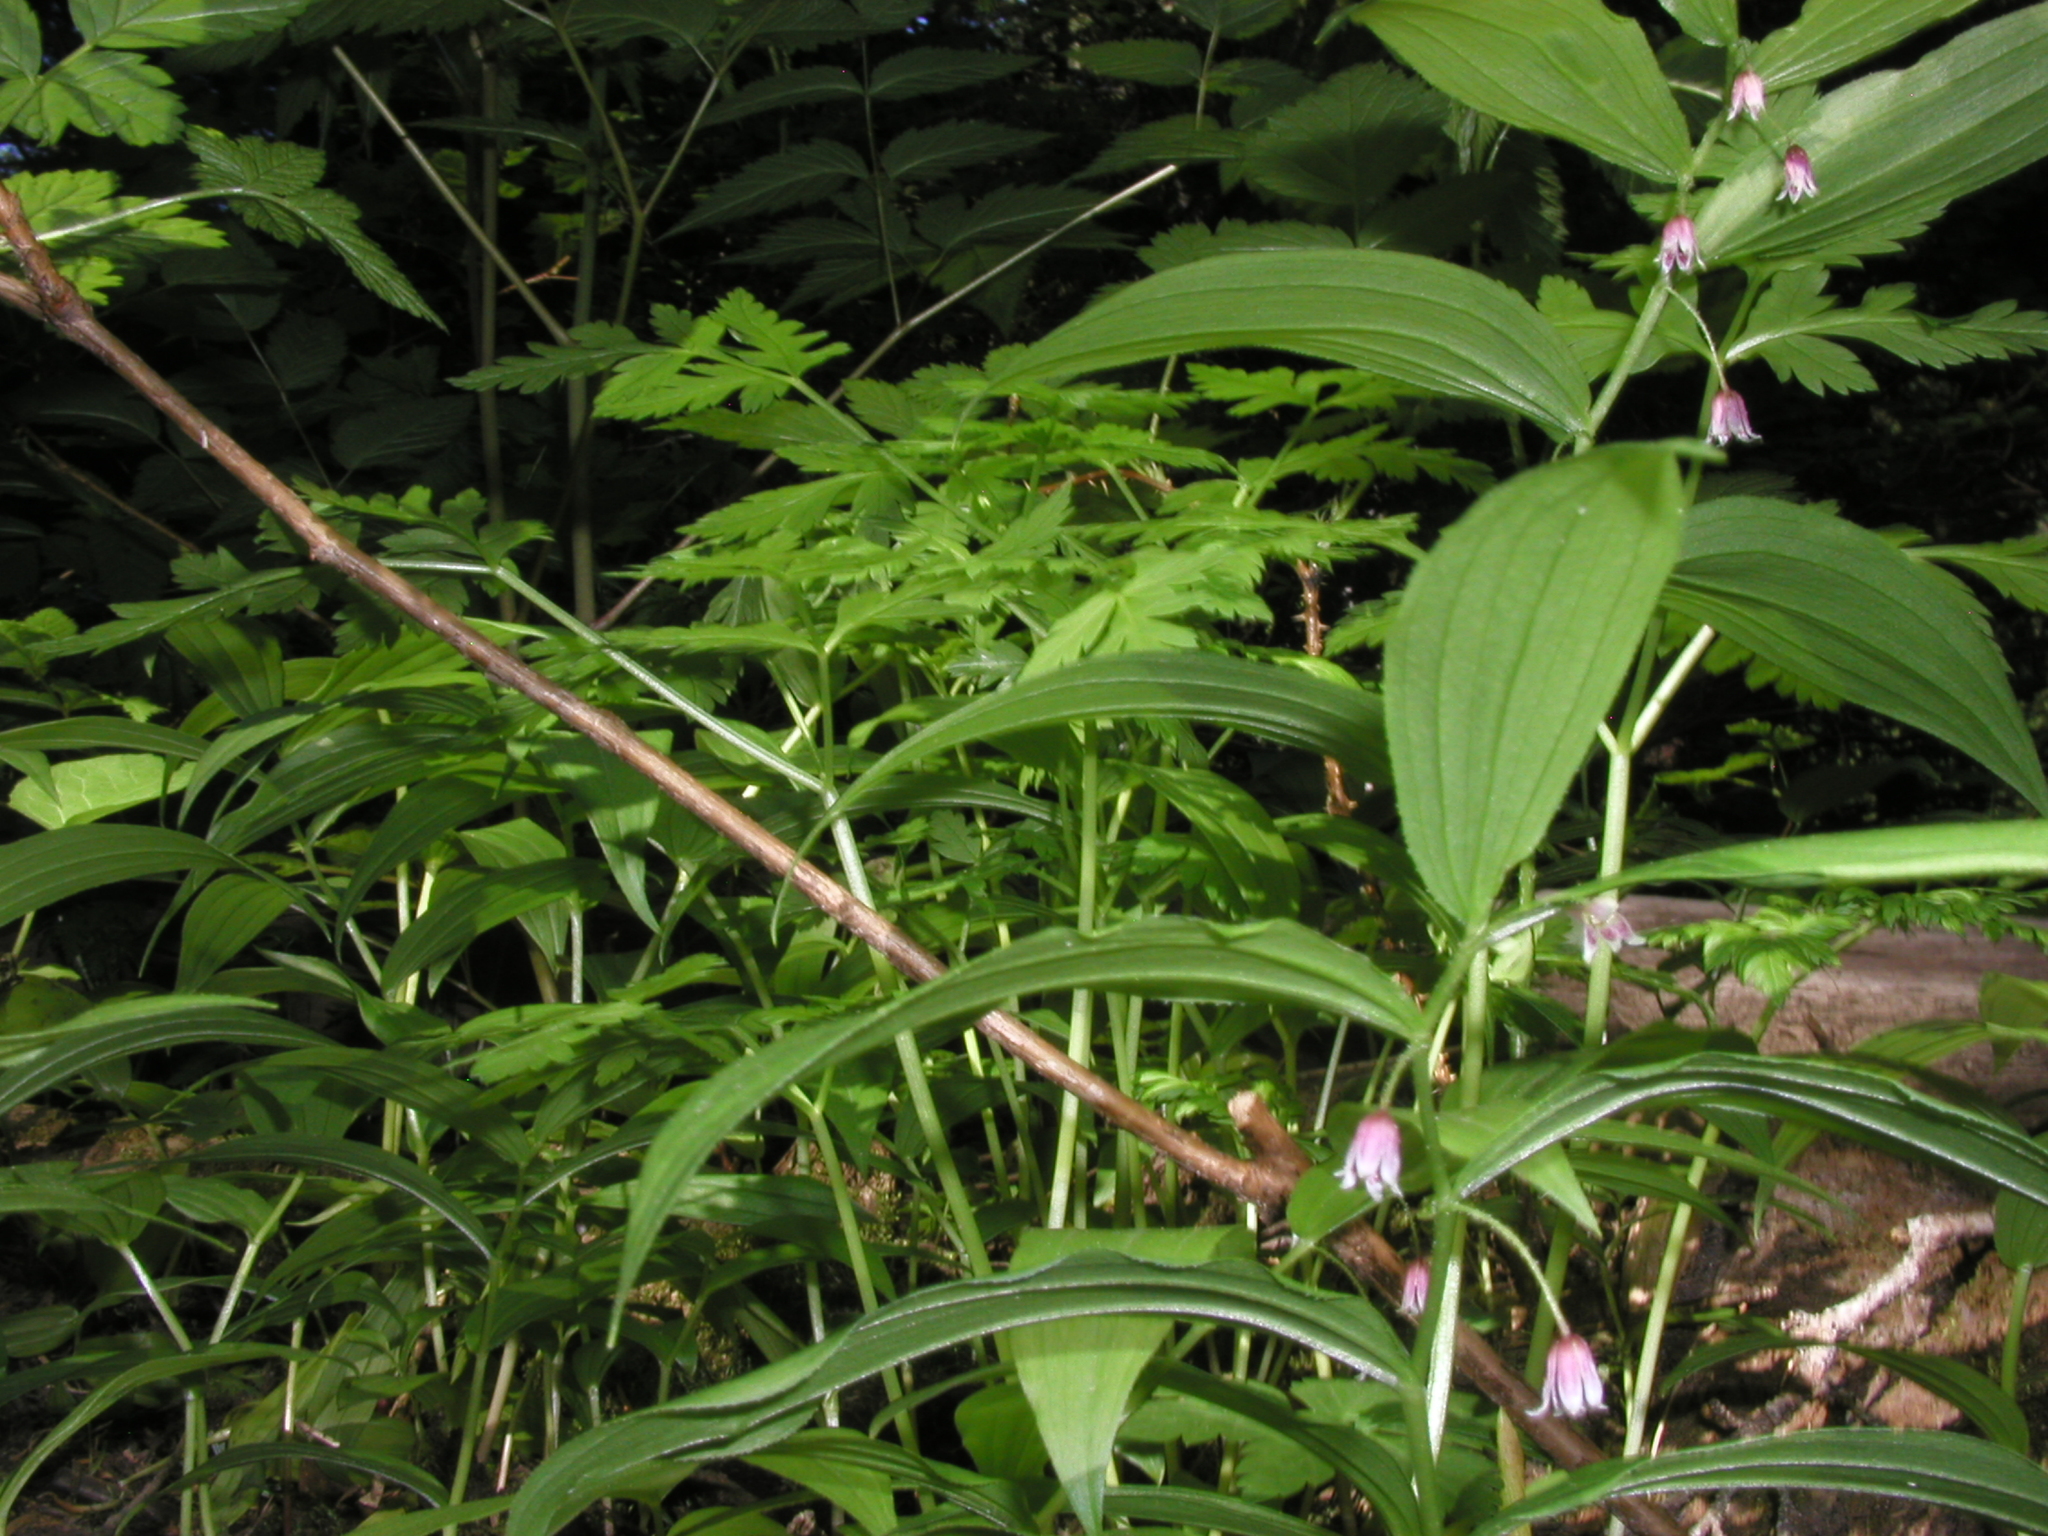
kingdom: Plantae
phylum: Tracheophyta
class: Liliopsida
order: Liliales
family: Liliaceae
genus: Streptopus
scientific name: Streptopus lanceolatus
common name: Rose mandarin
